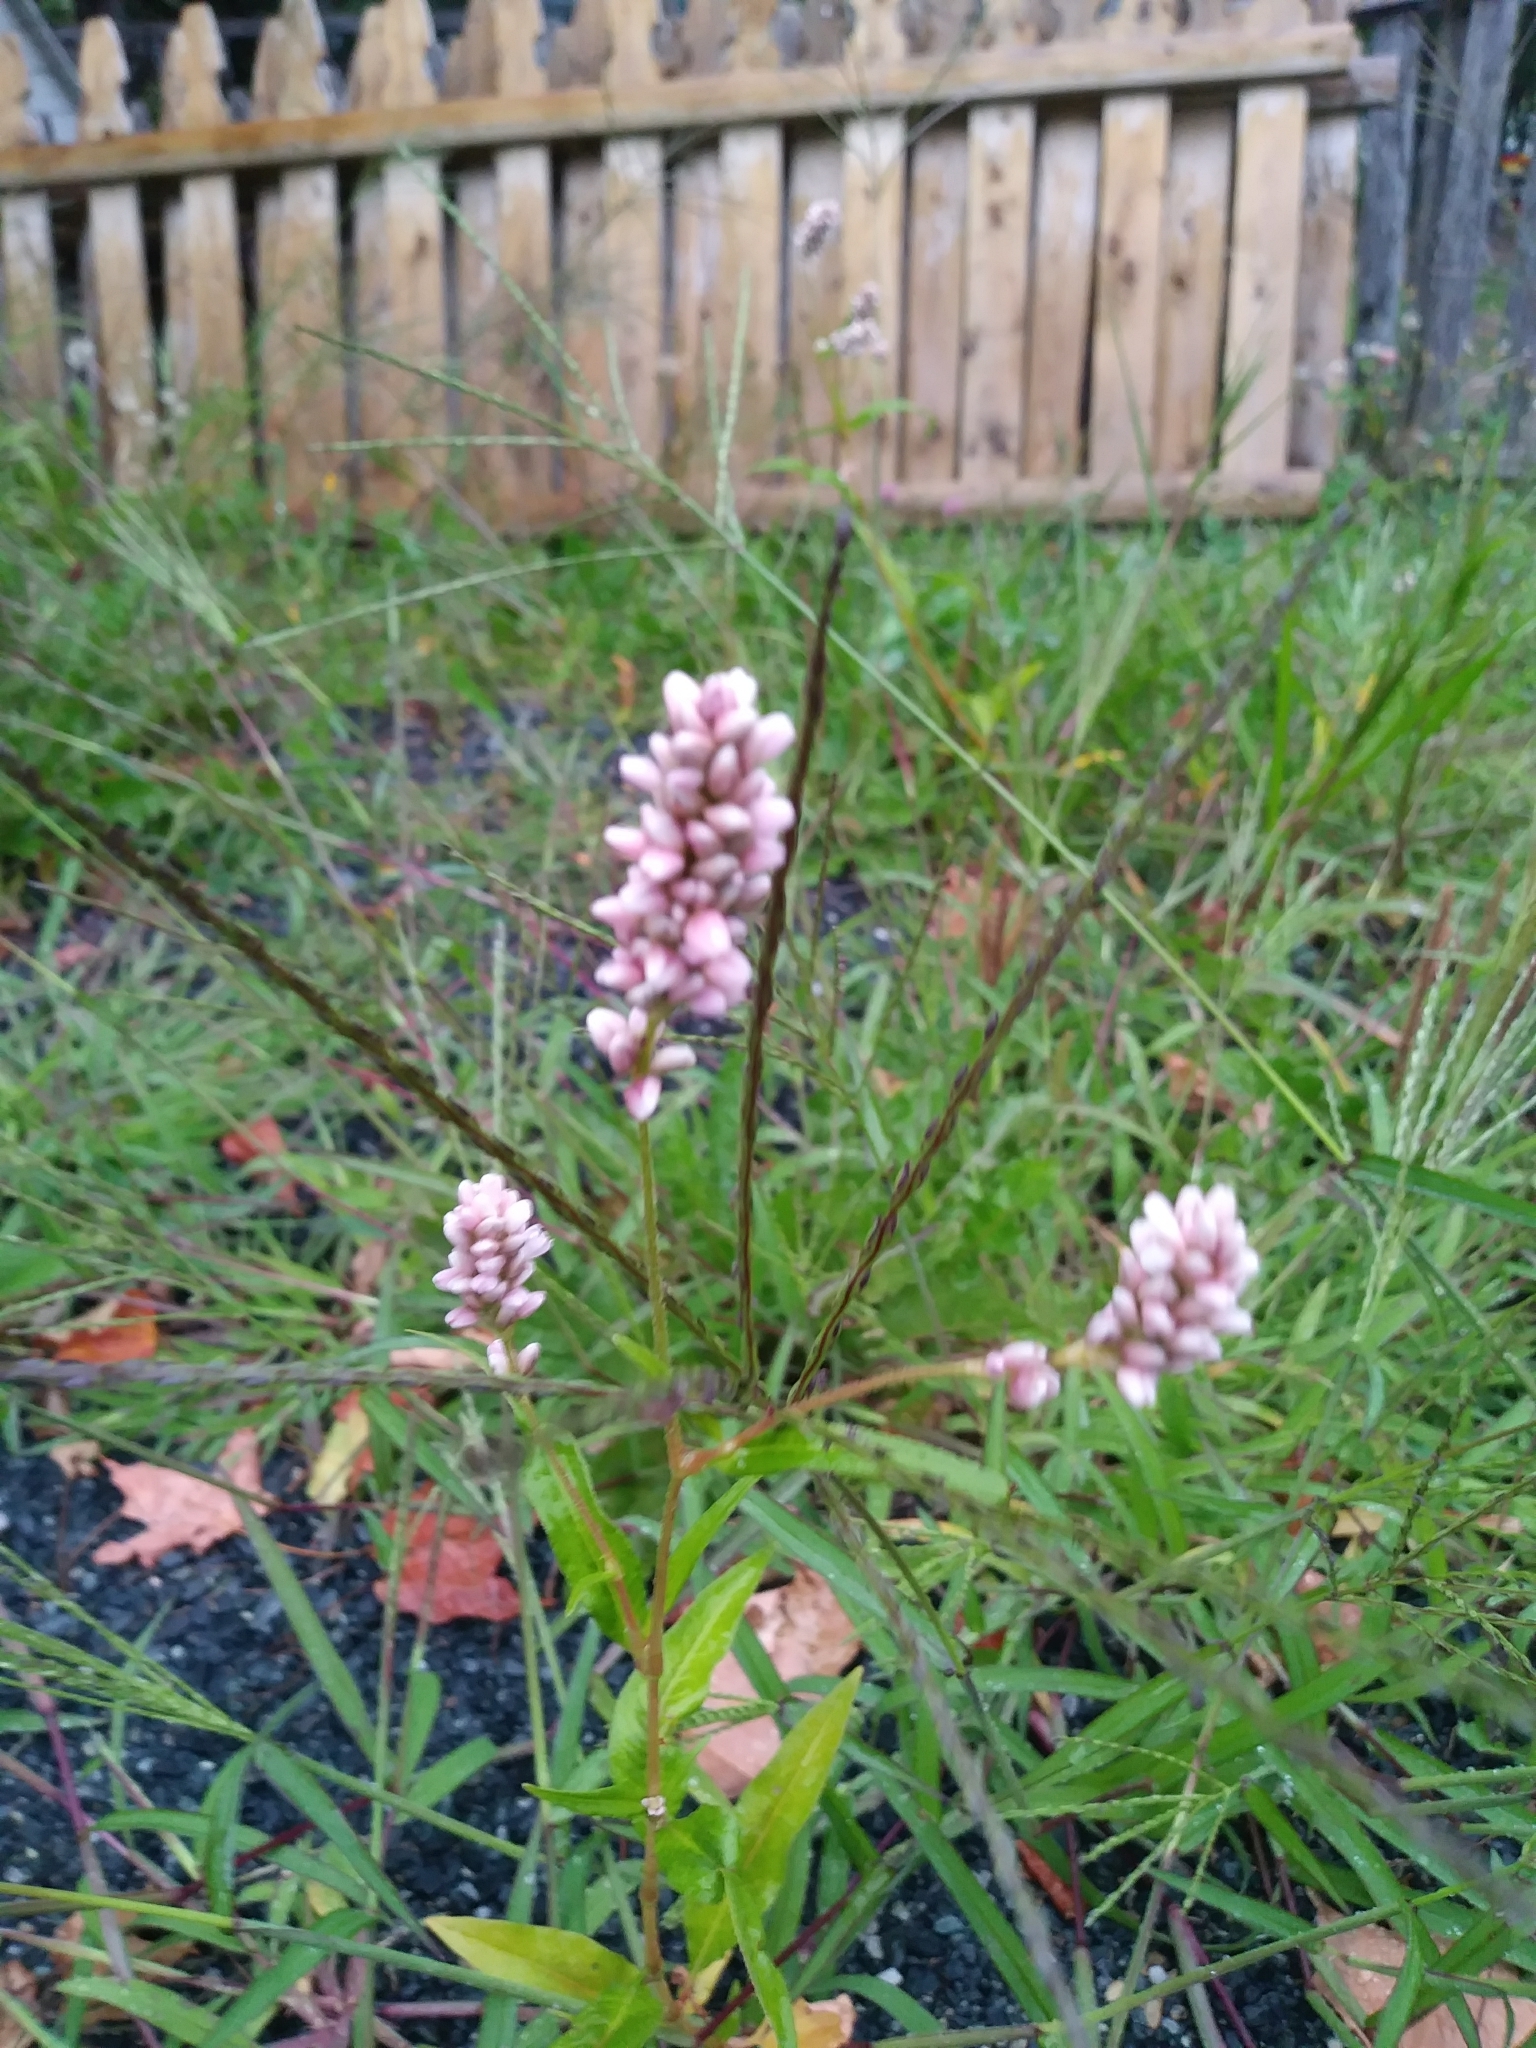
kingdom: Plantae
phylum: Tracheophyta
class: Magnoliopsida
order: Caryophyllales
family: Polygonaceae
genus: Persicaria
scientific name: Persicaria pensylvanica
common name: Pinkweed
